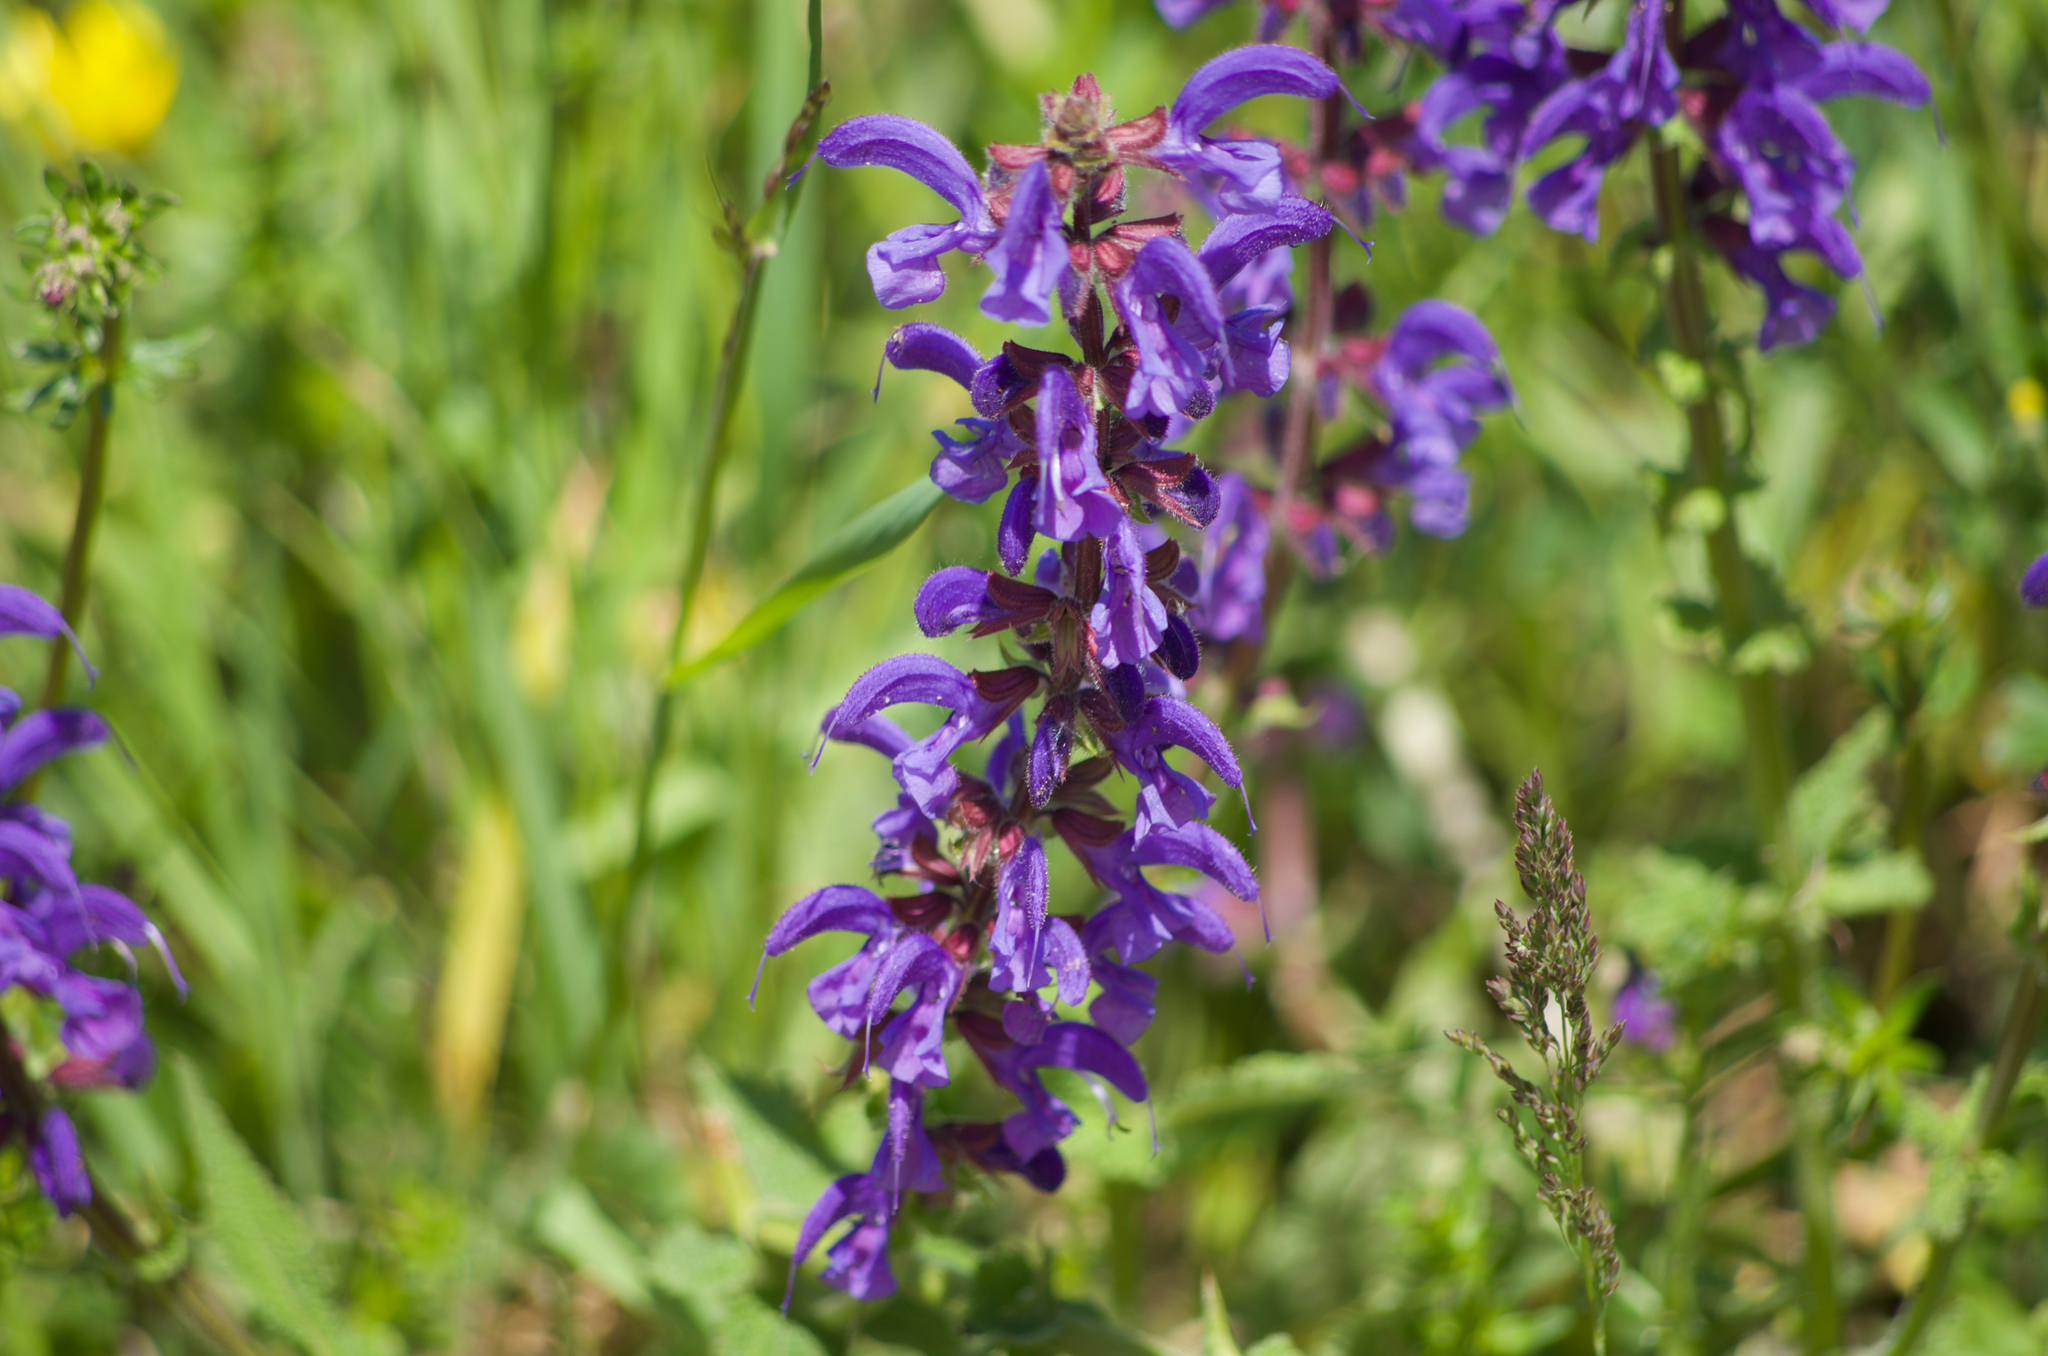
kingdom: Plantae
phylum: Tracheophyta
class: Magnoliopsida
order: Lamiales
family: Lamiaceae
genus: Salvia
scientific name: Salvia pratensis
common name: Meadow sage
